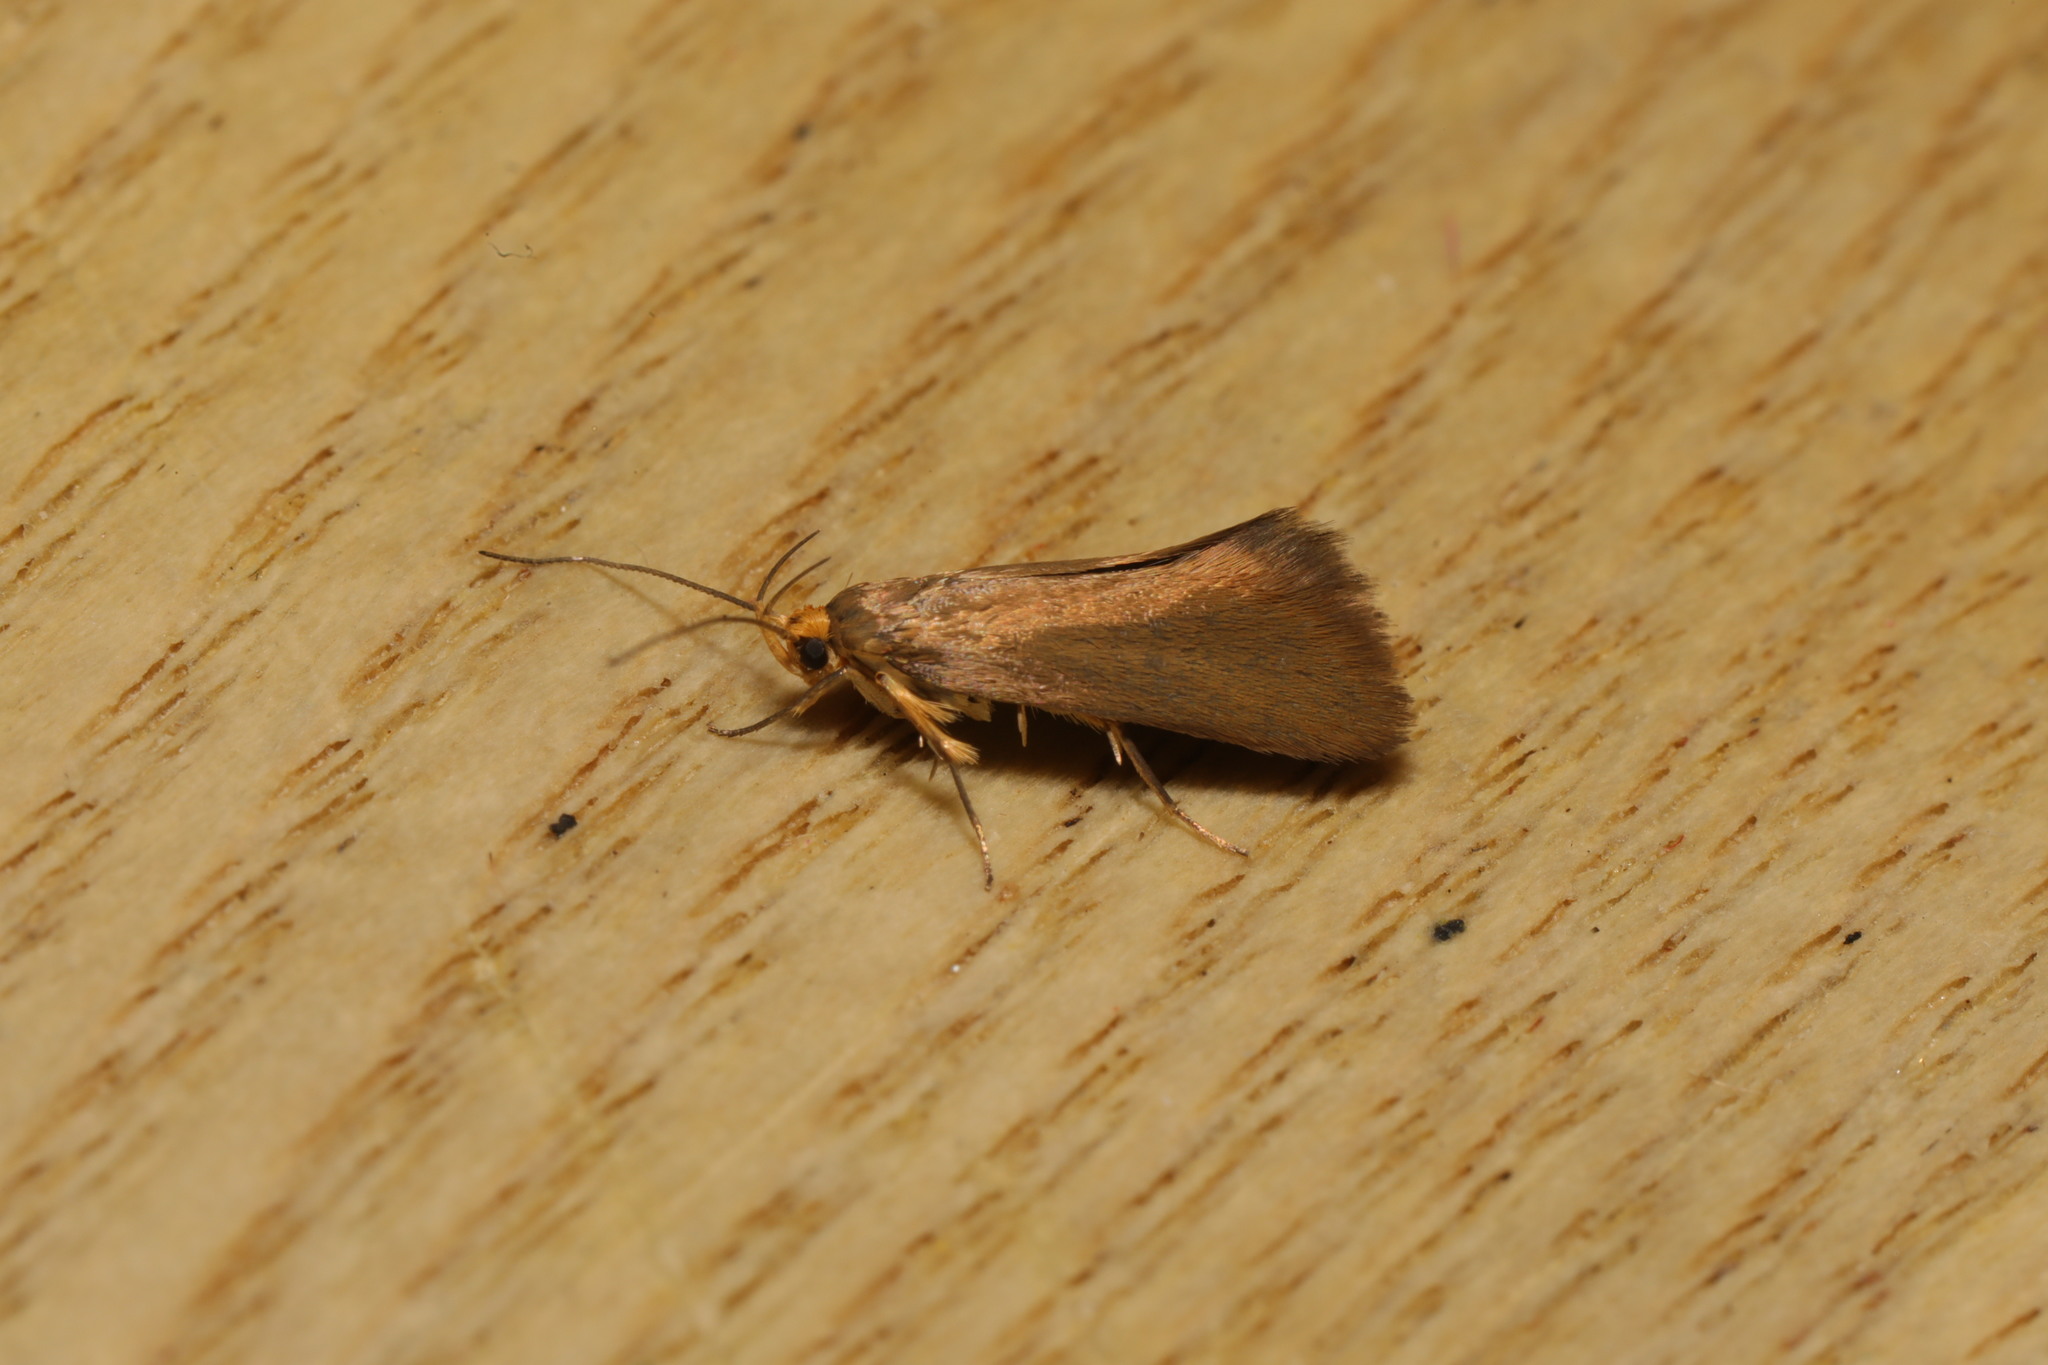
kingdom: Animalia
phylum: Arthropoda
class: Insecta
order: Lepidoptera
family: Oecophoridae
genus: Borkhausenia
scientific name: Borkhausenia Crassa unitella
